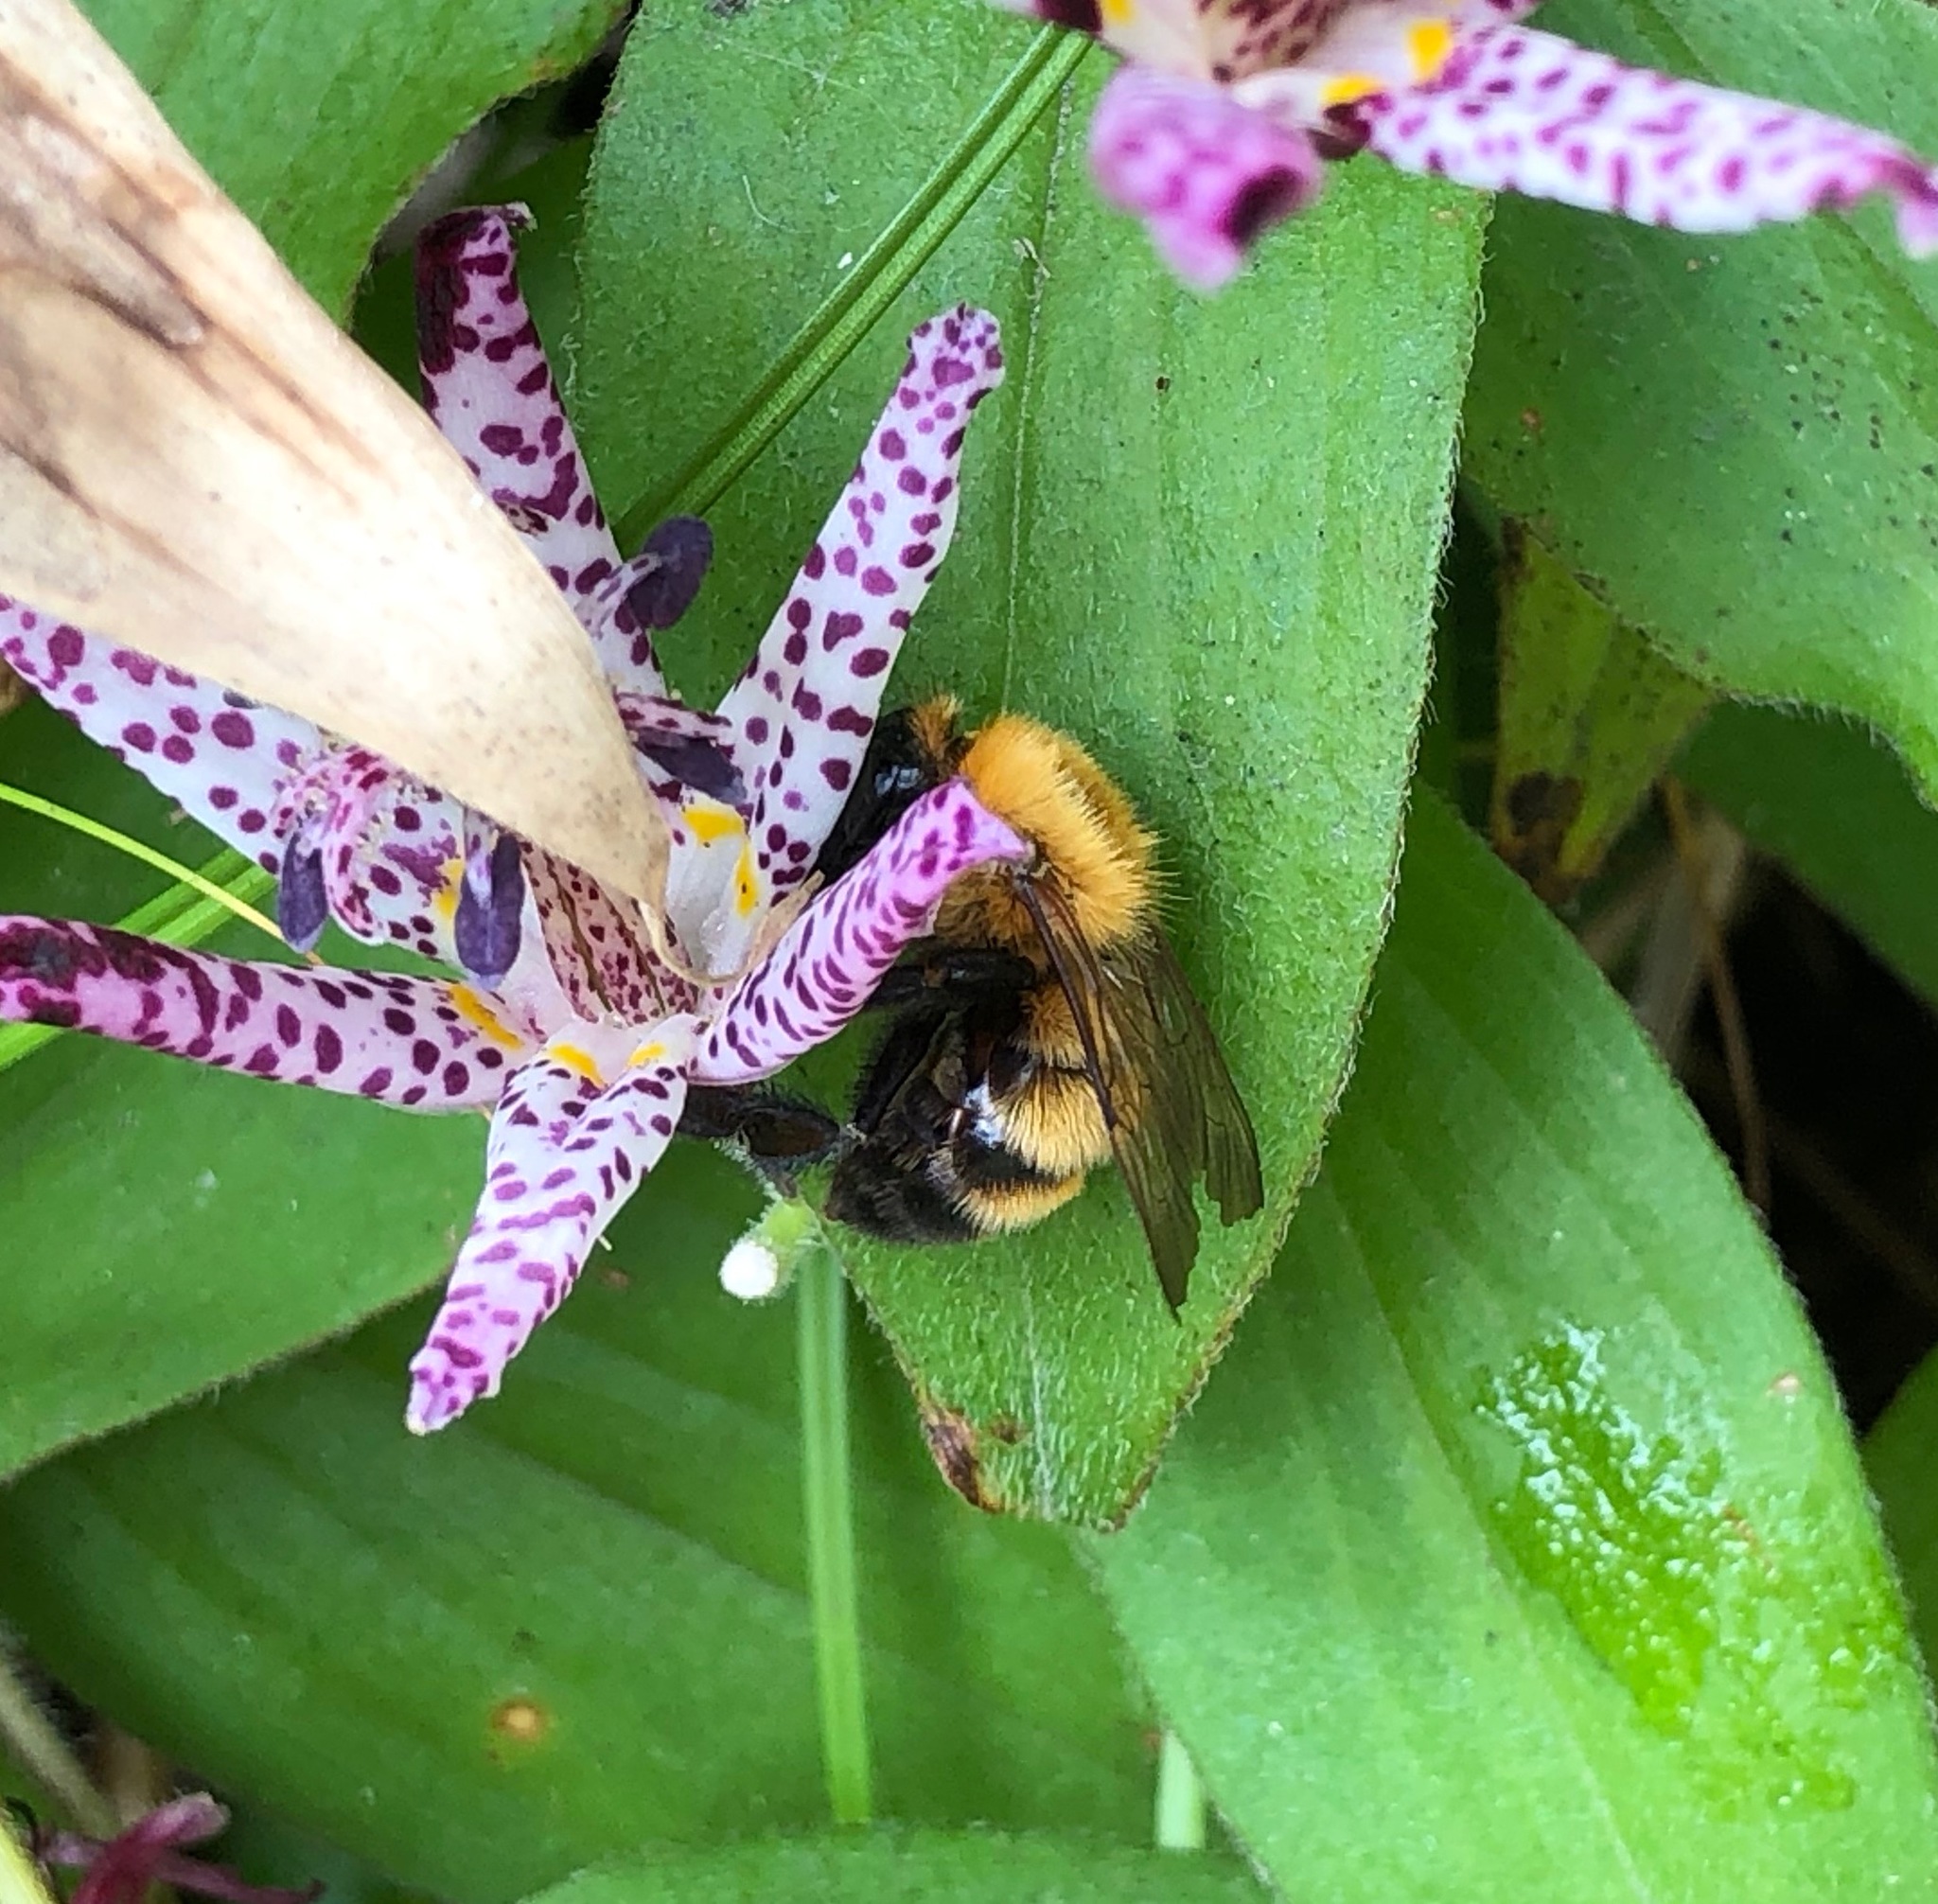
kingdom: Animalia
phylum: Arthropoda
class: Insecta
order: Hymenoptera
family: Apidae
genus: Bombus
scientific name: Bombus diversus
